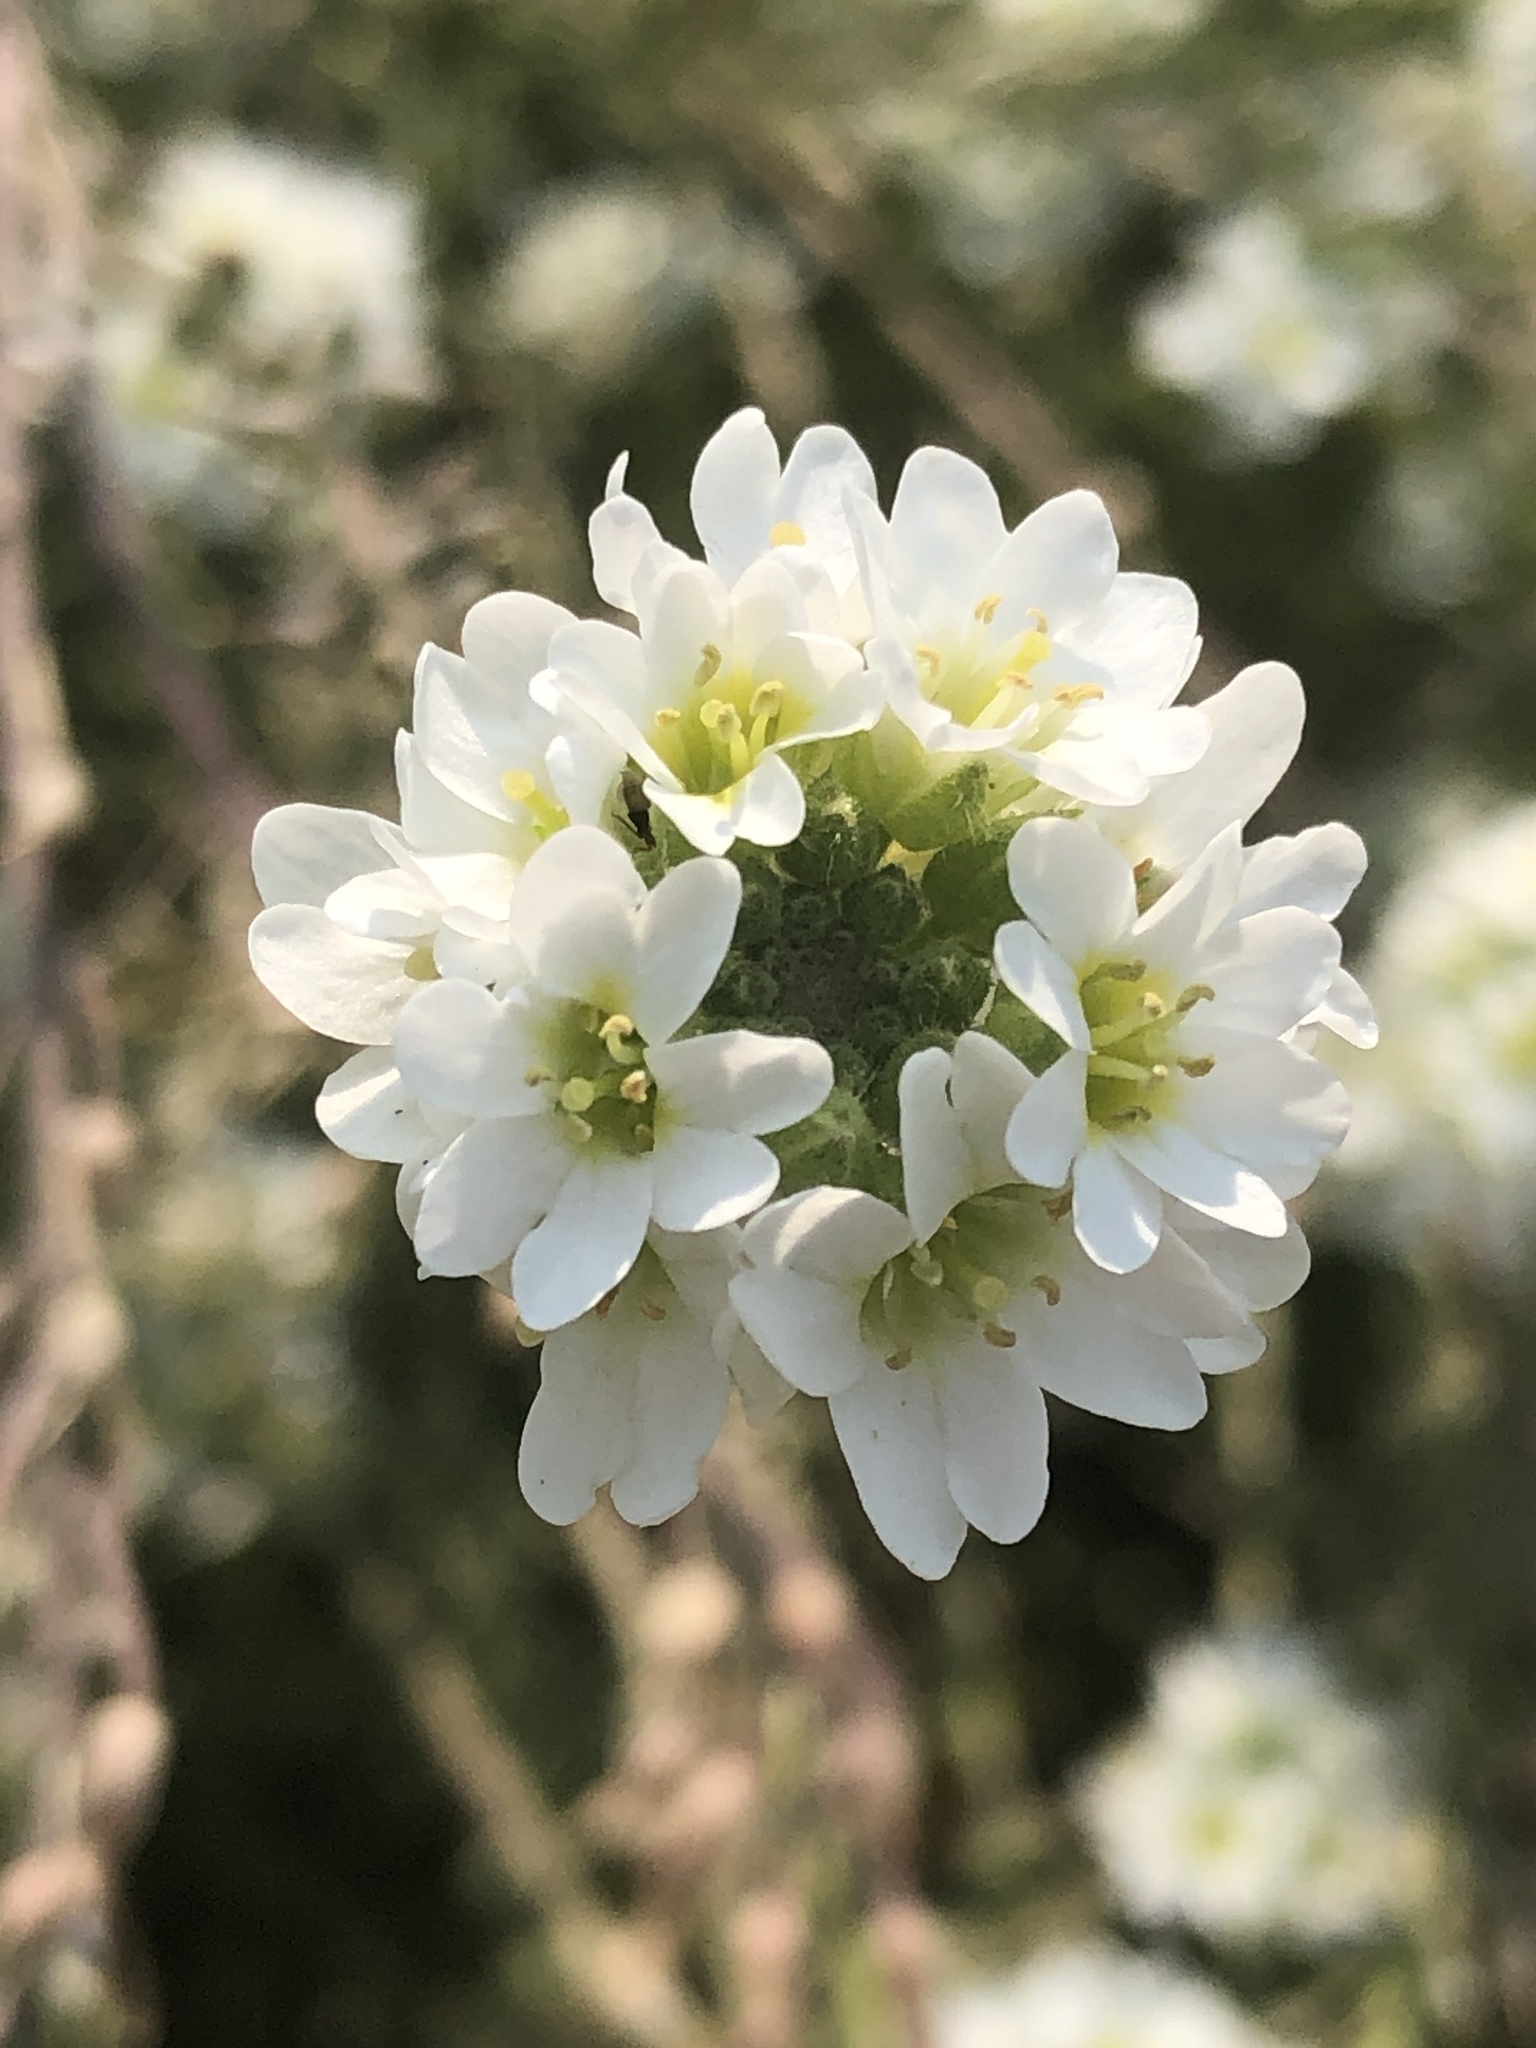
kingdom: Plantae
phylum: Tracheophyta
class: Magnoliopsida
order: Brassicales
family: Brassicaceae
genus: Berteroa
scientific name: Berteroa incana
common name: Hoary alison
